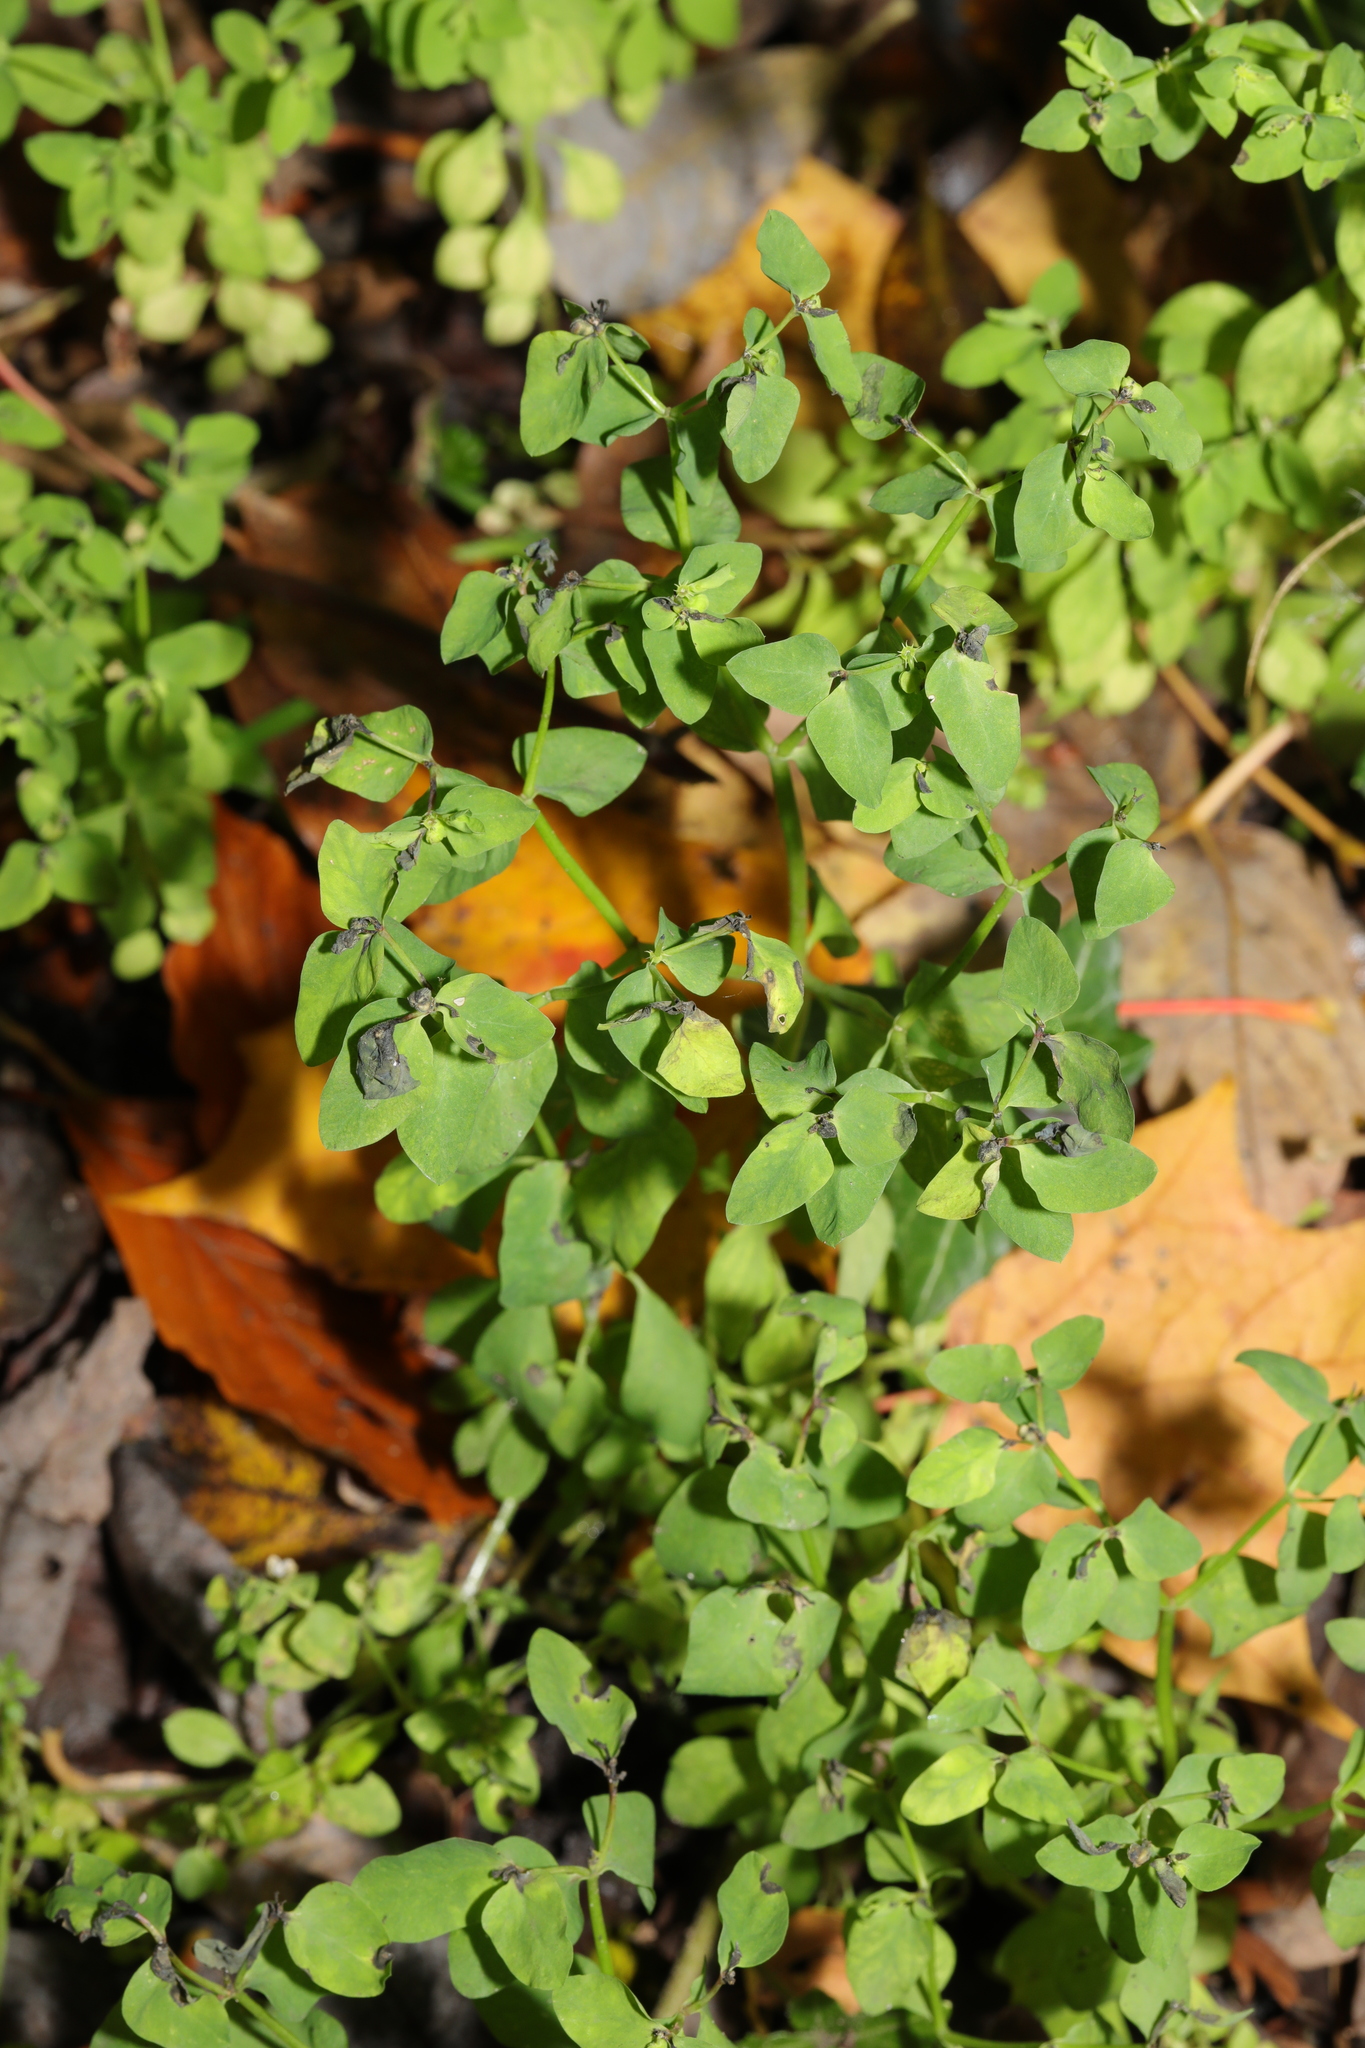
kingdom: Plantae
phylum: Tracheophyta
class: Magnoliopsida
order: Malpighiales
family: Euphorbiaceae
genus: Euphorbia
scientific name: Euphorbia peplus
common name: Petty spurge
